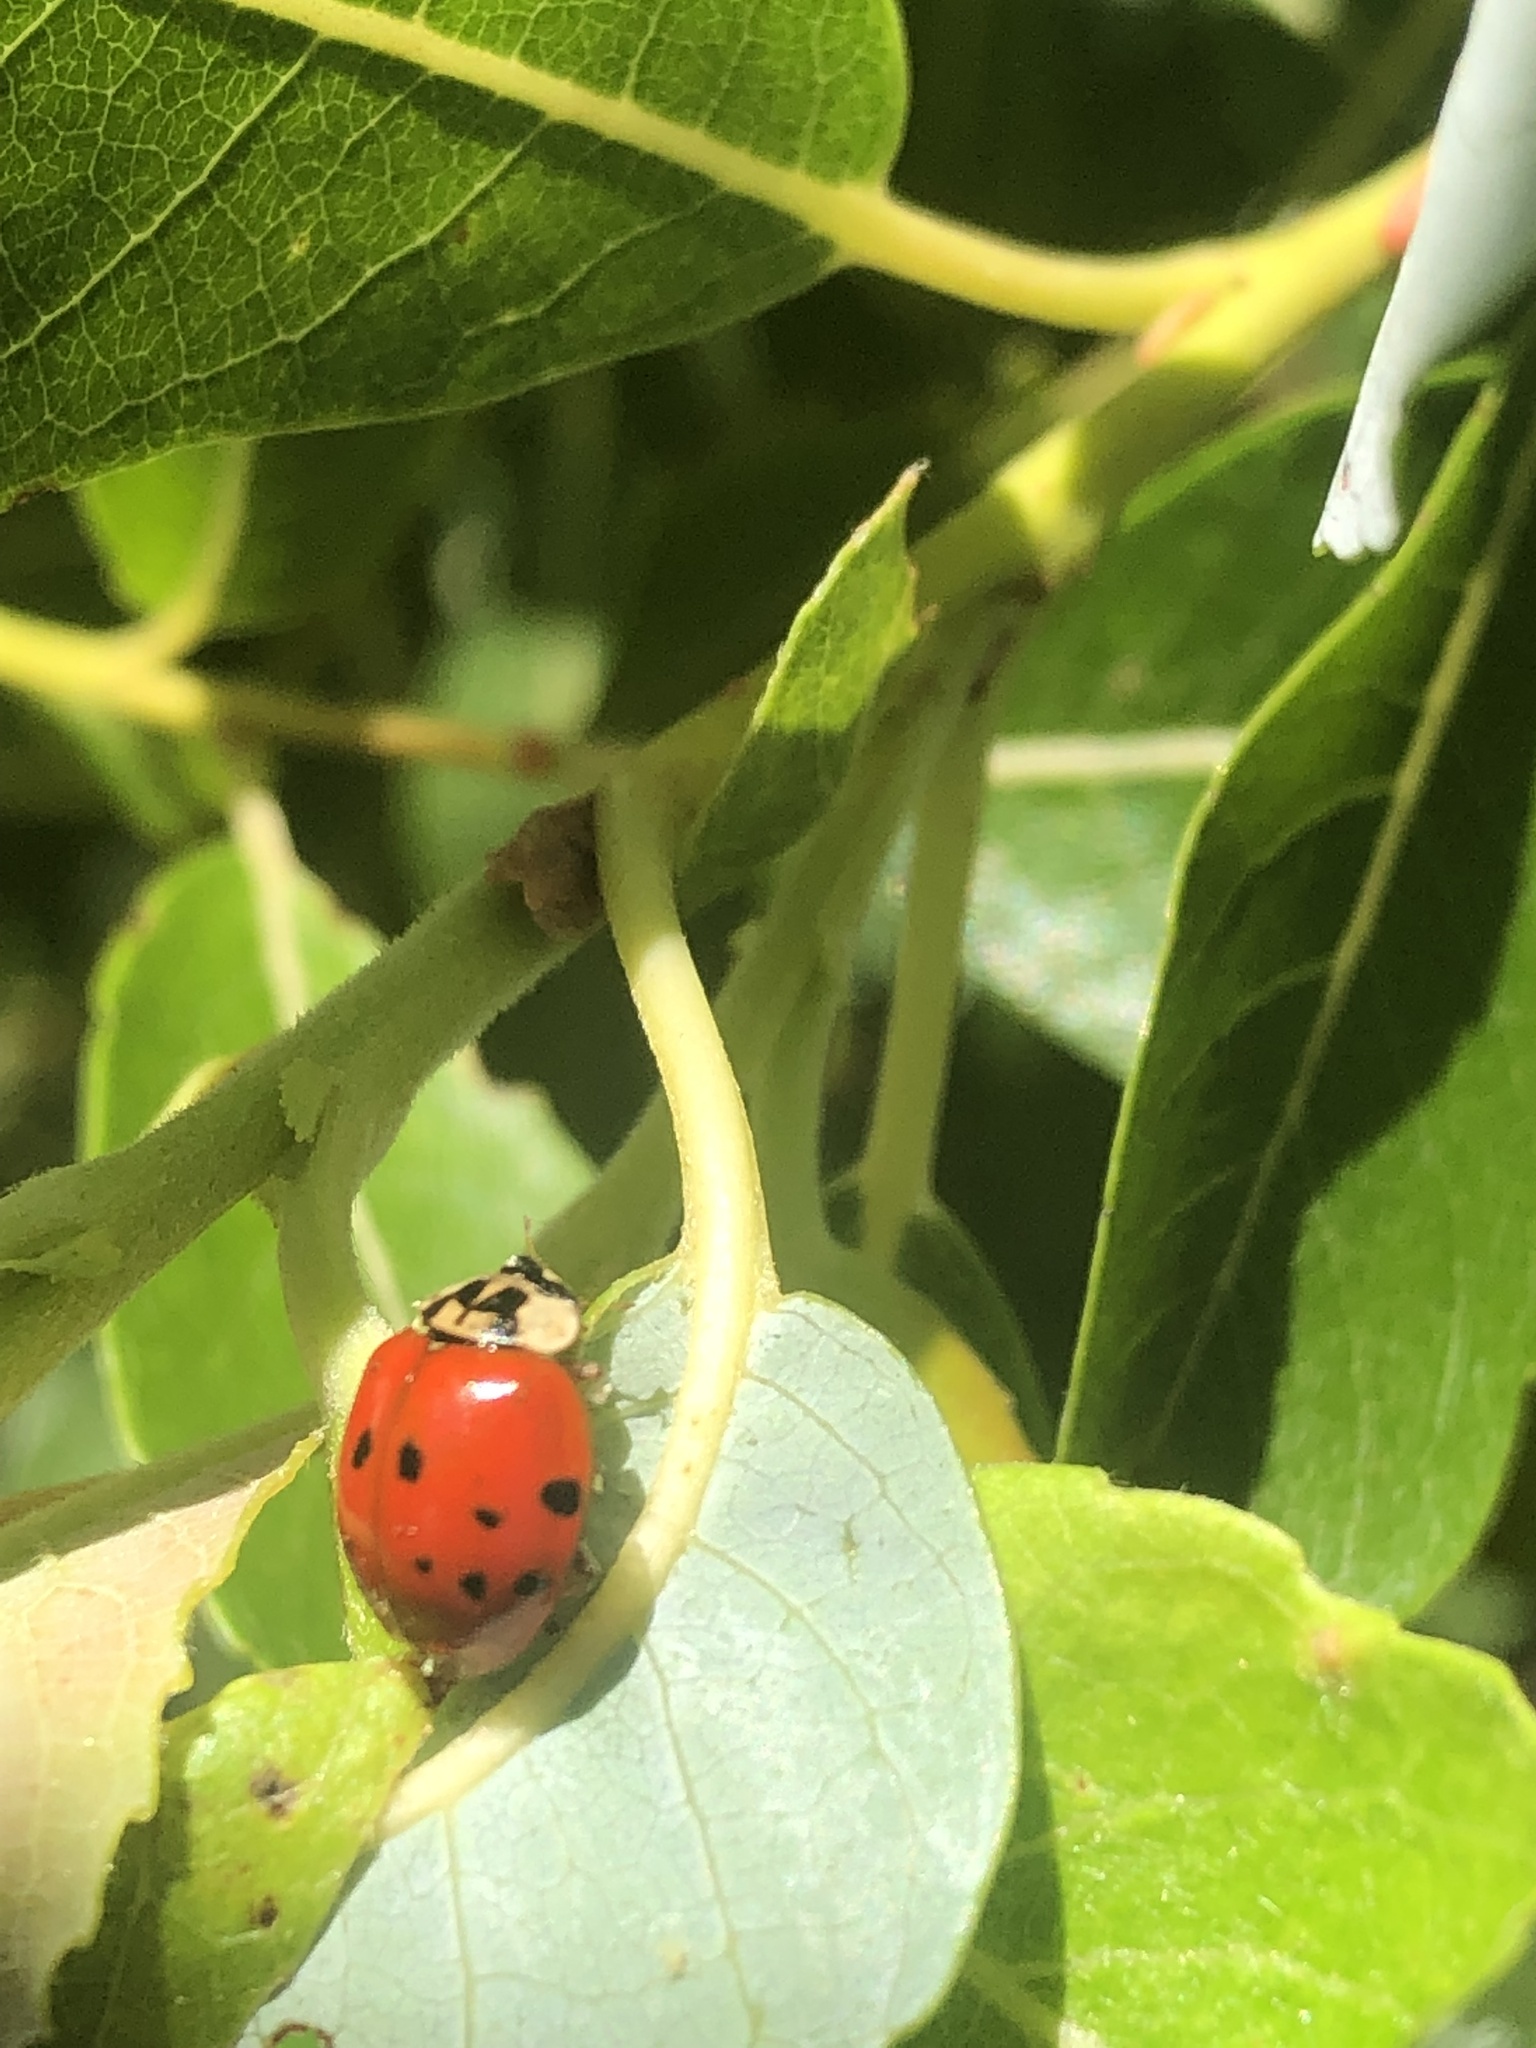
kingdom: Animalia
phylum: Arthropoda
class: Insecta
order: Coleoptera
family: Coccinellidae
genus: Harmonia
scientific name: Harmonia axyridis
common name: Harlequin ladybird
